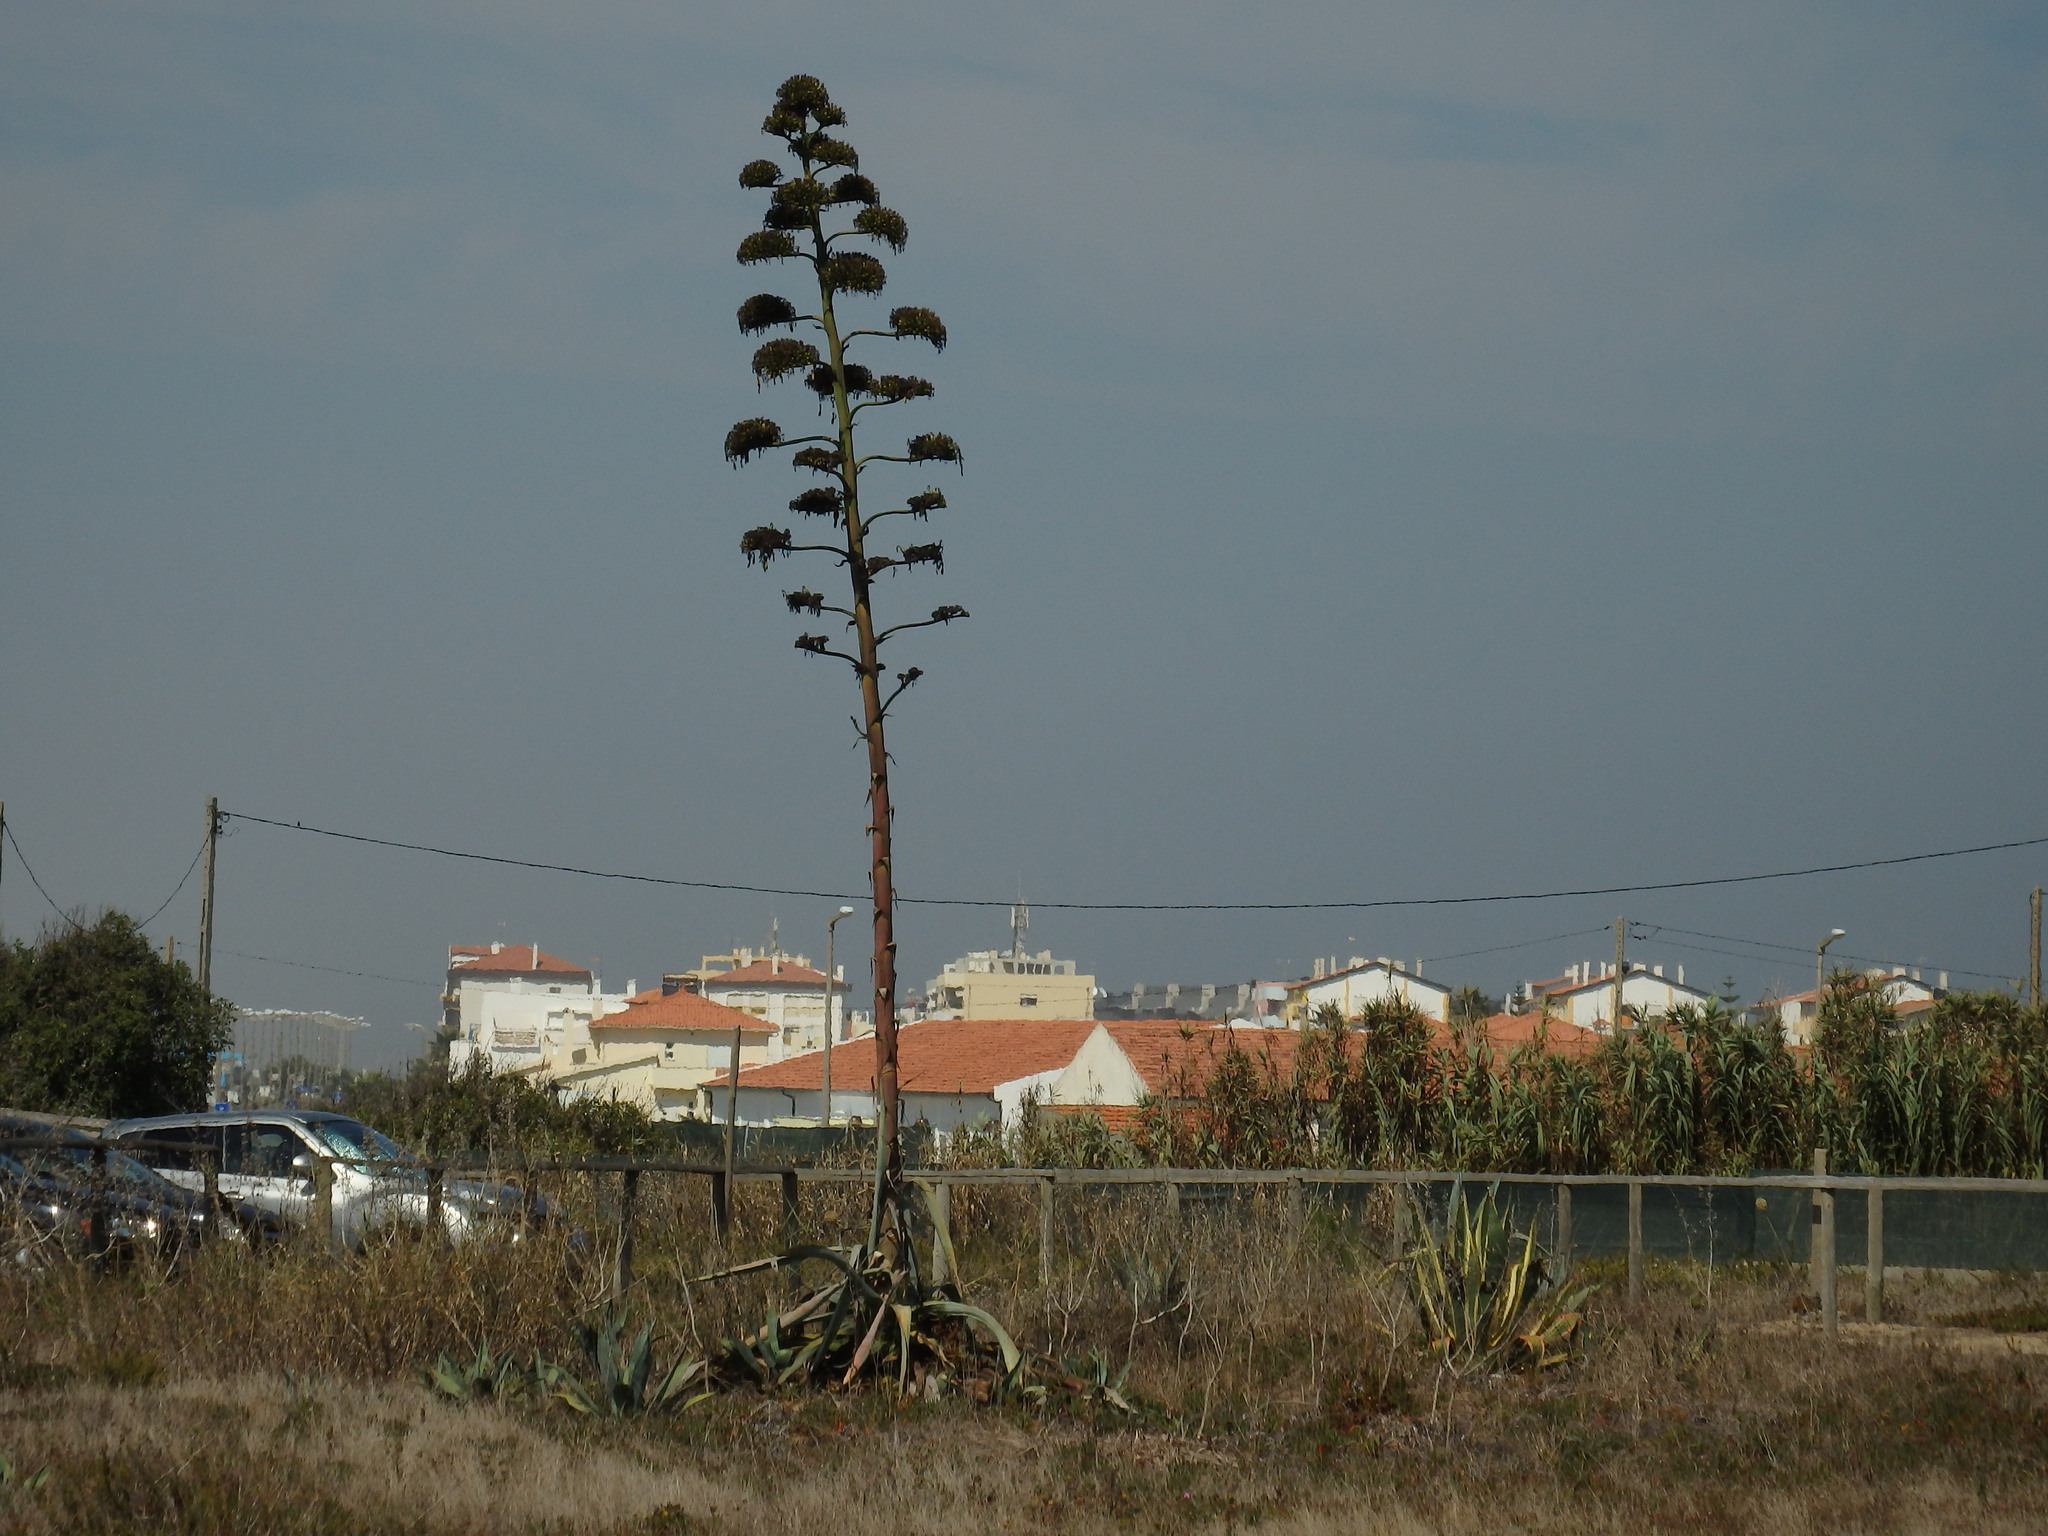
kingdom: Plantae
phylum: Tracheophyta
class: Liliopsida
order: Asparagales
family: Asparagaceae
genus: Agave
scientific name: Agave americana
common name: Centuryplant
